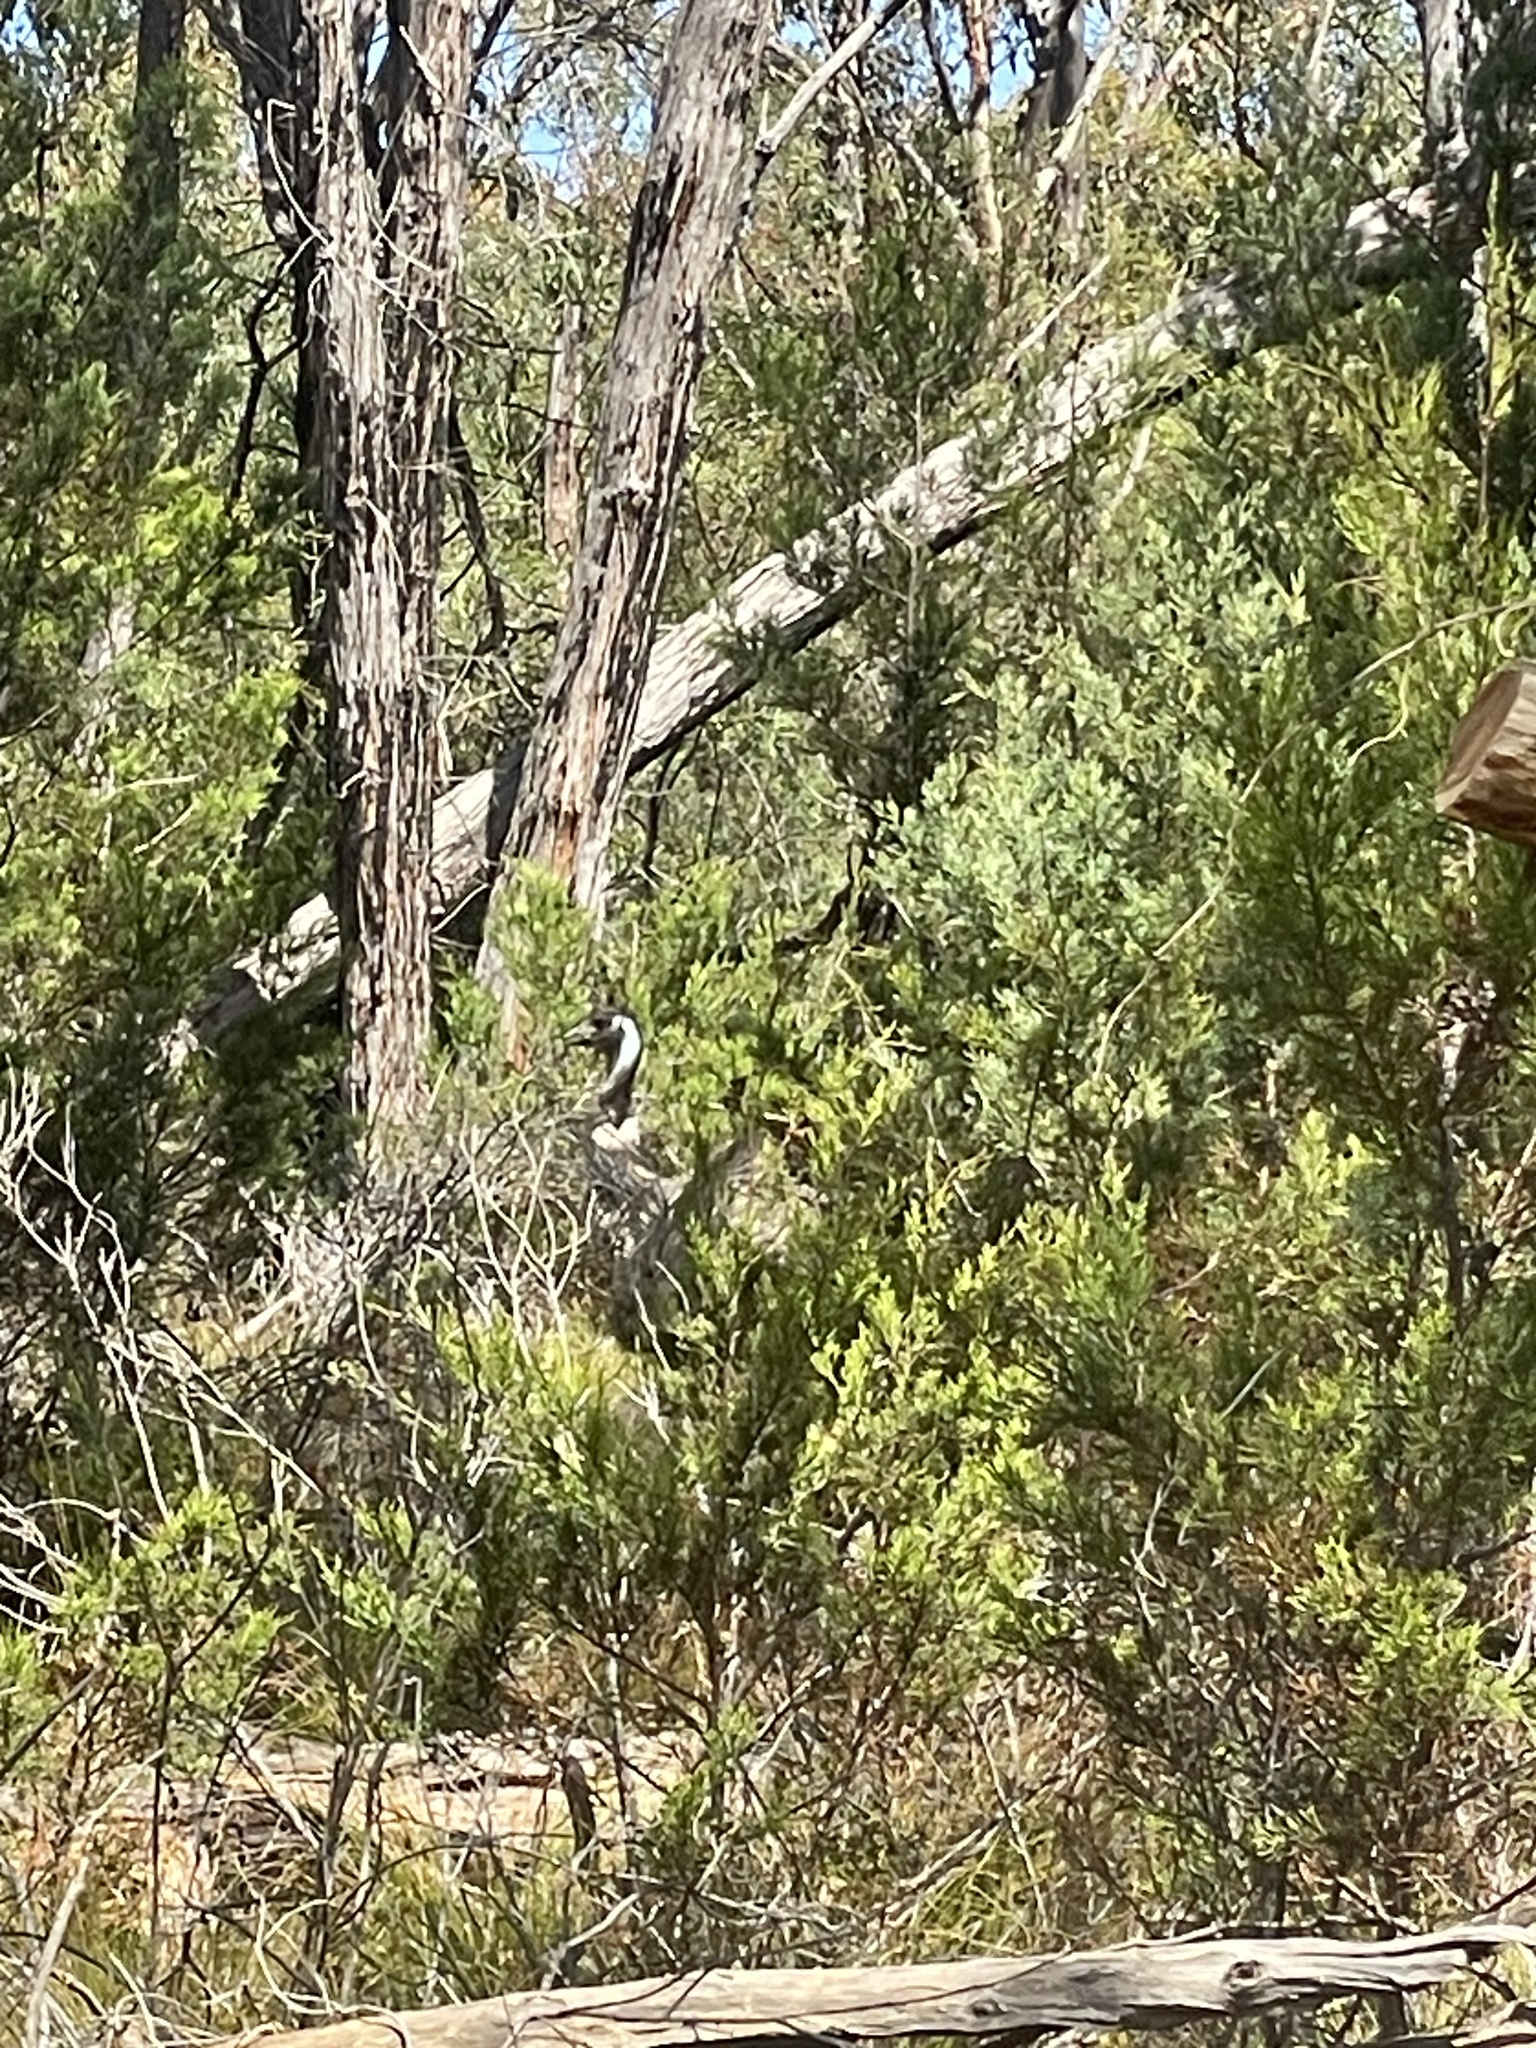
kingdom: Animalia
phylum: Chordata
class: Aves
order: Casuariiformes
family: Dromaiidae
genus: Dromaius
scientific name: Dromaius novaehollandiae
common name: Emu
